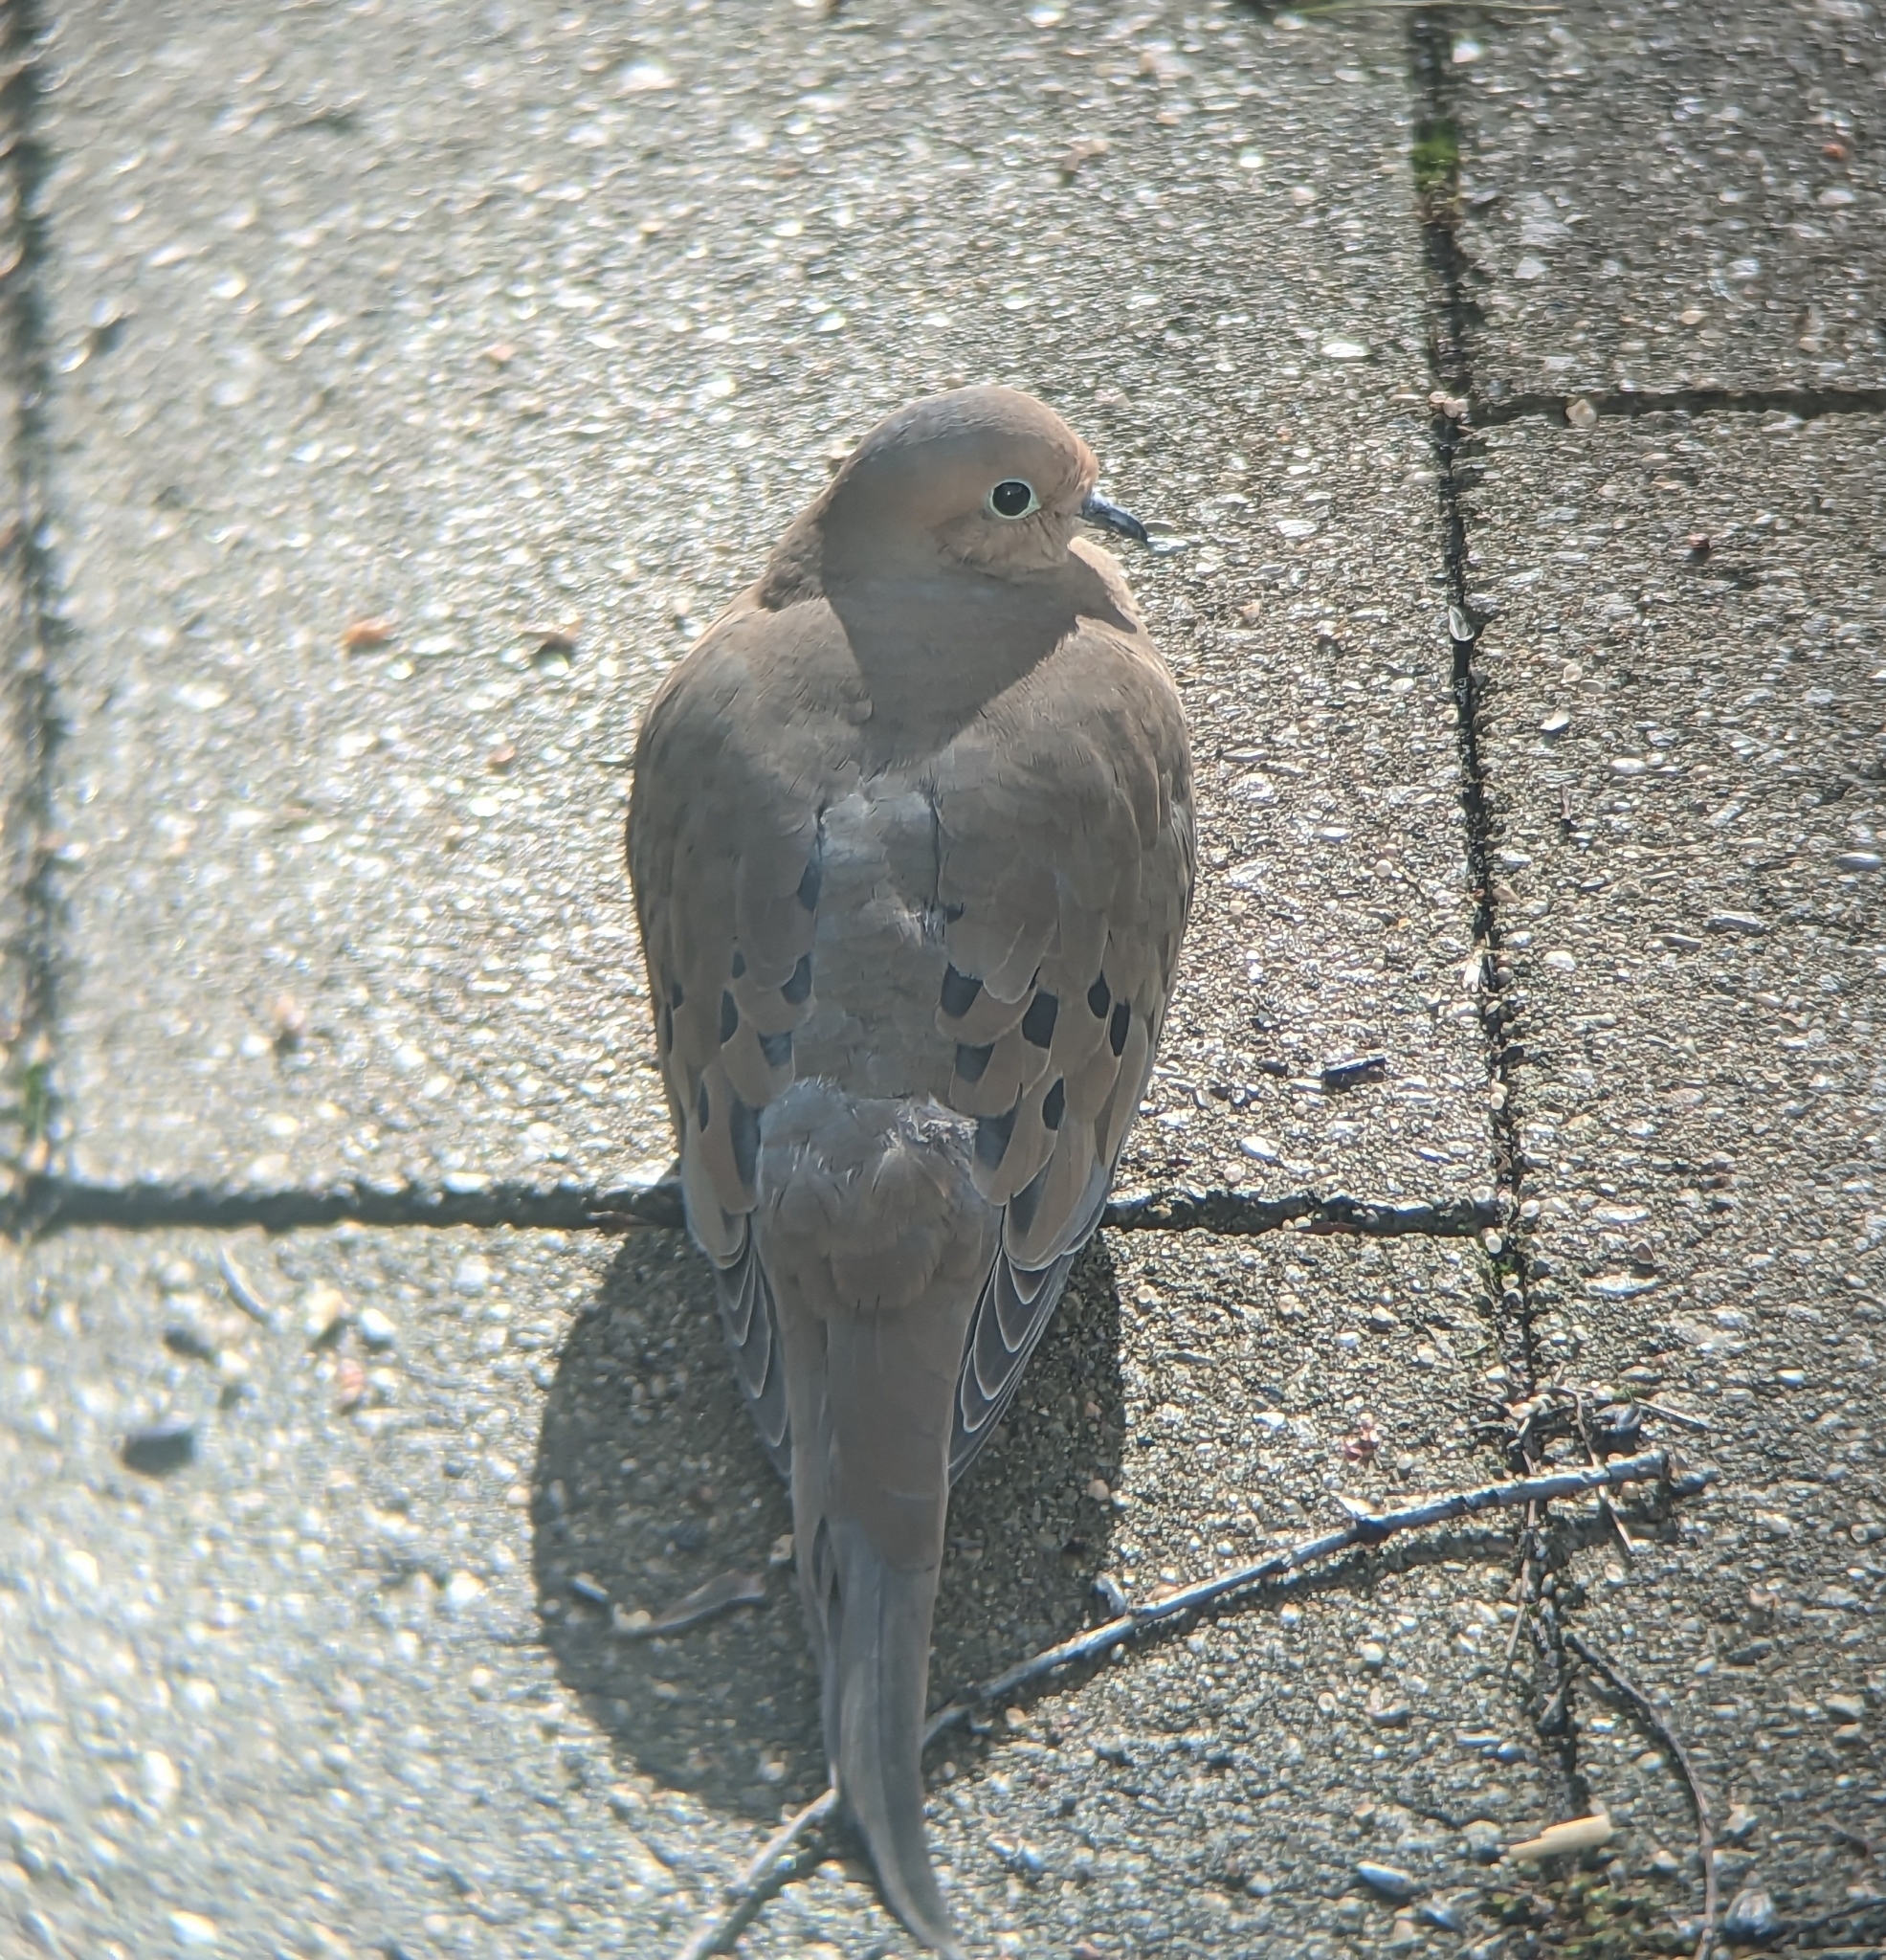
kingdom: Animalia
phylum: Chordata
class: Aves
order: Columbiformes
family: Columbidae
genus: Zenaida
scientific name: Zenaida macroura
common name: Mourning dove
